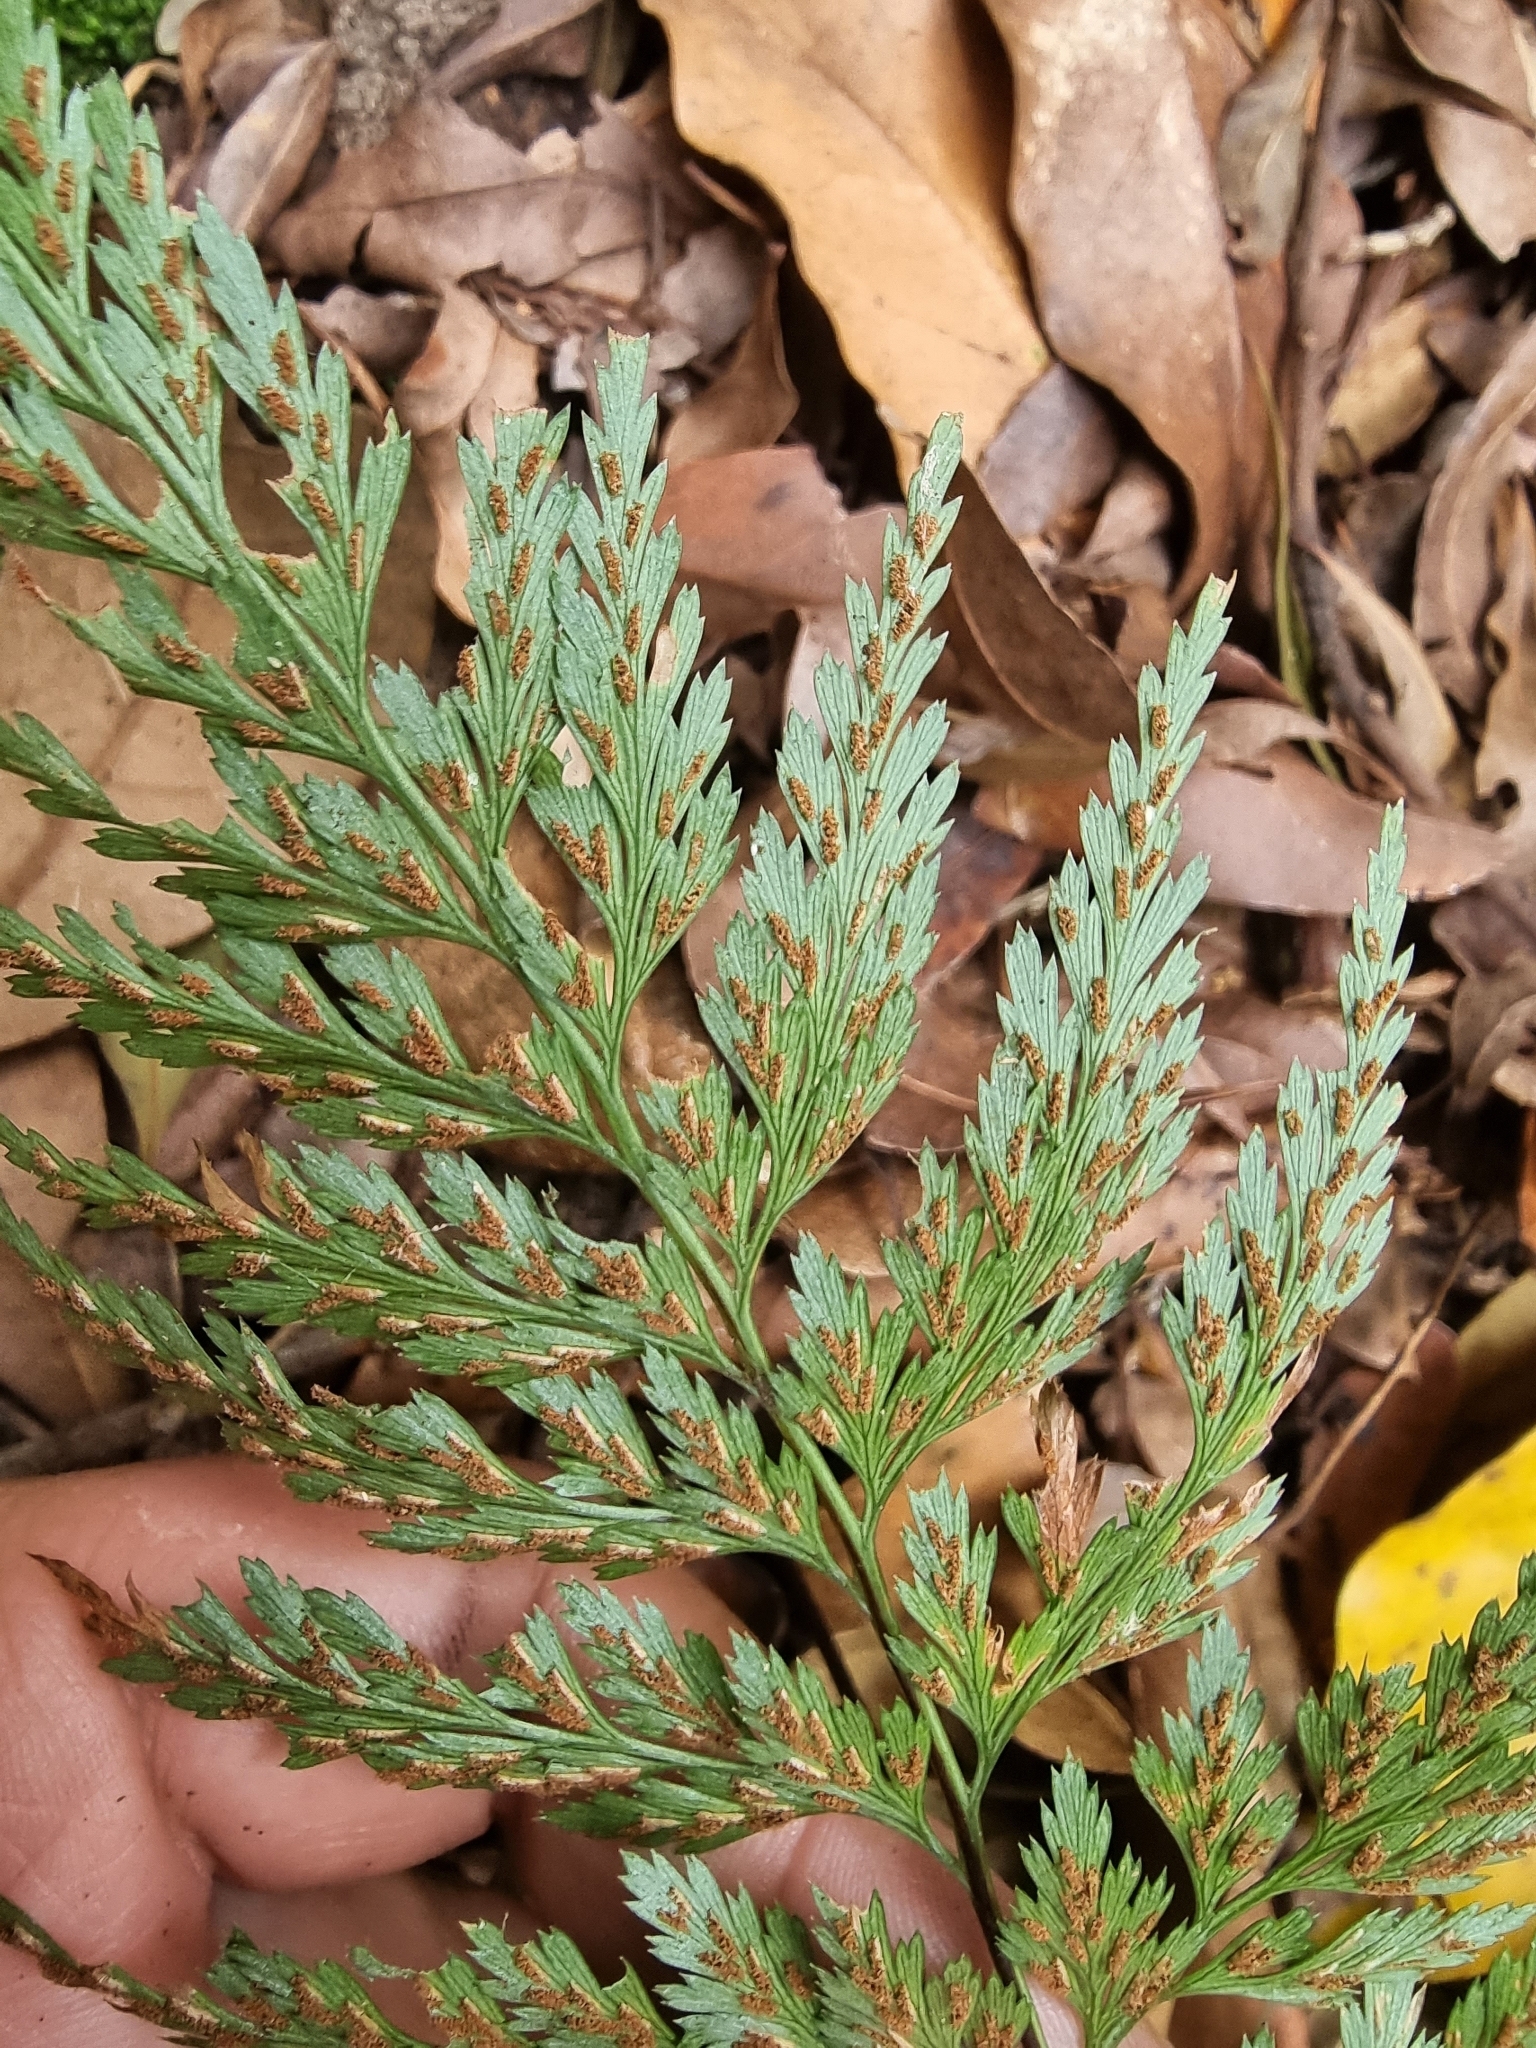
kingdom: Plantae
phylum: Tracheophyta
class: Polypodiopsida
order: Polypodiales
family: Aspleniaceae
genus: Asplenium
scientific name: Asplenium onopteris
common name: Irish spleenwort
